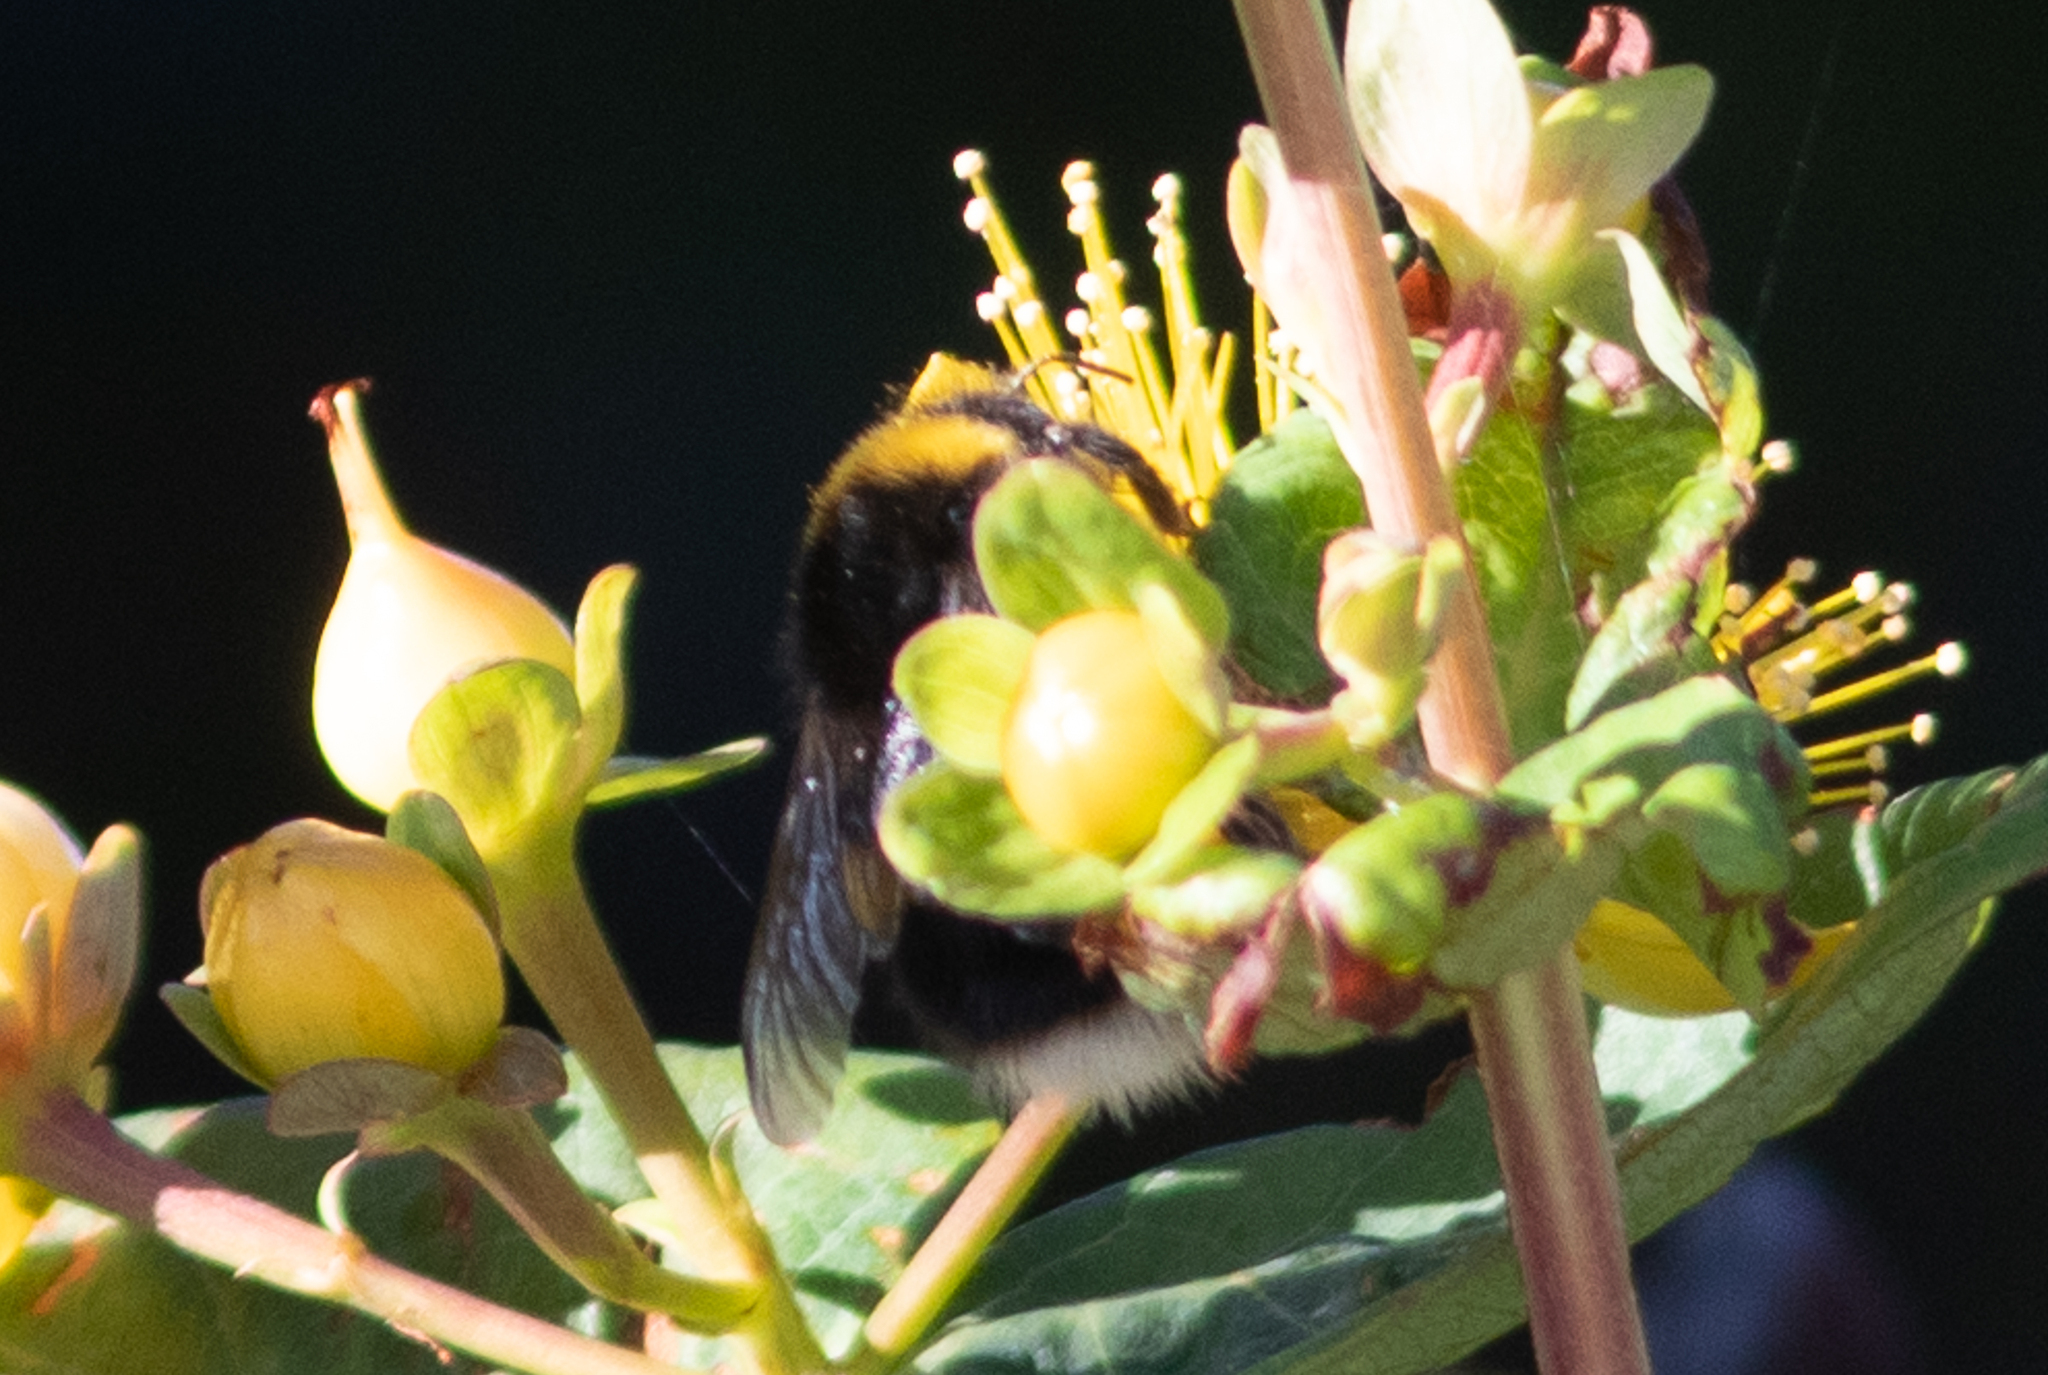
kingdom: Animalia
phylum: Arthropoda
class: Insecta
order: Hymenoptera
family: Apidae
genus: Bombus
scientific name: Bombus
